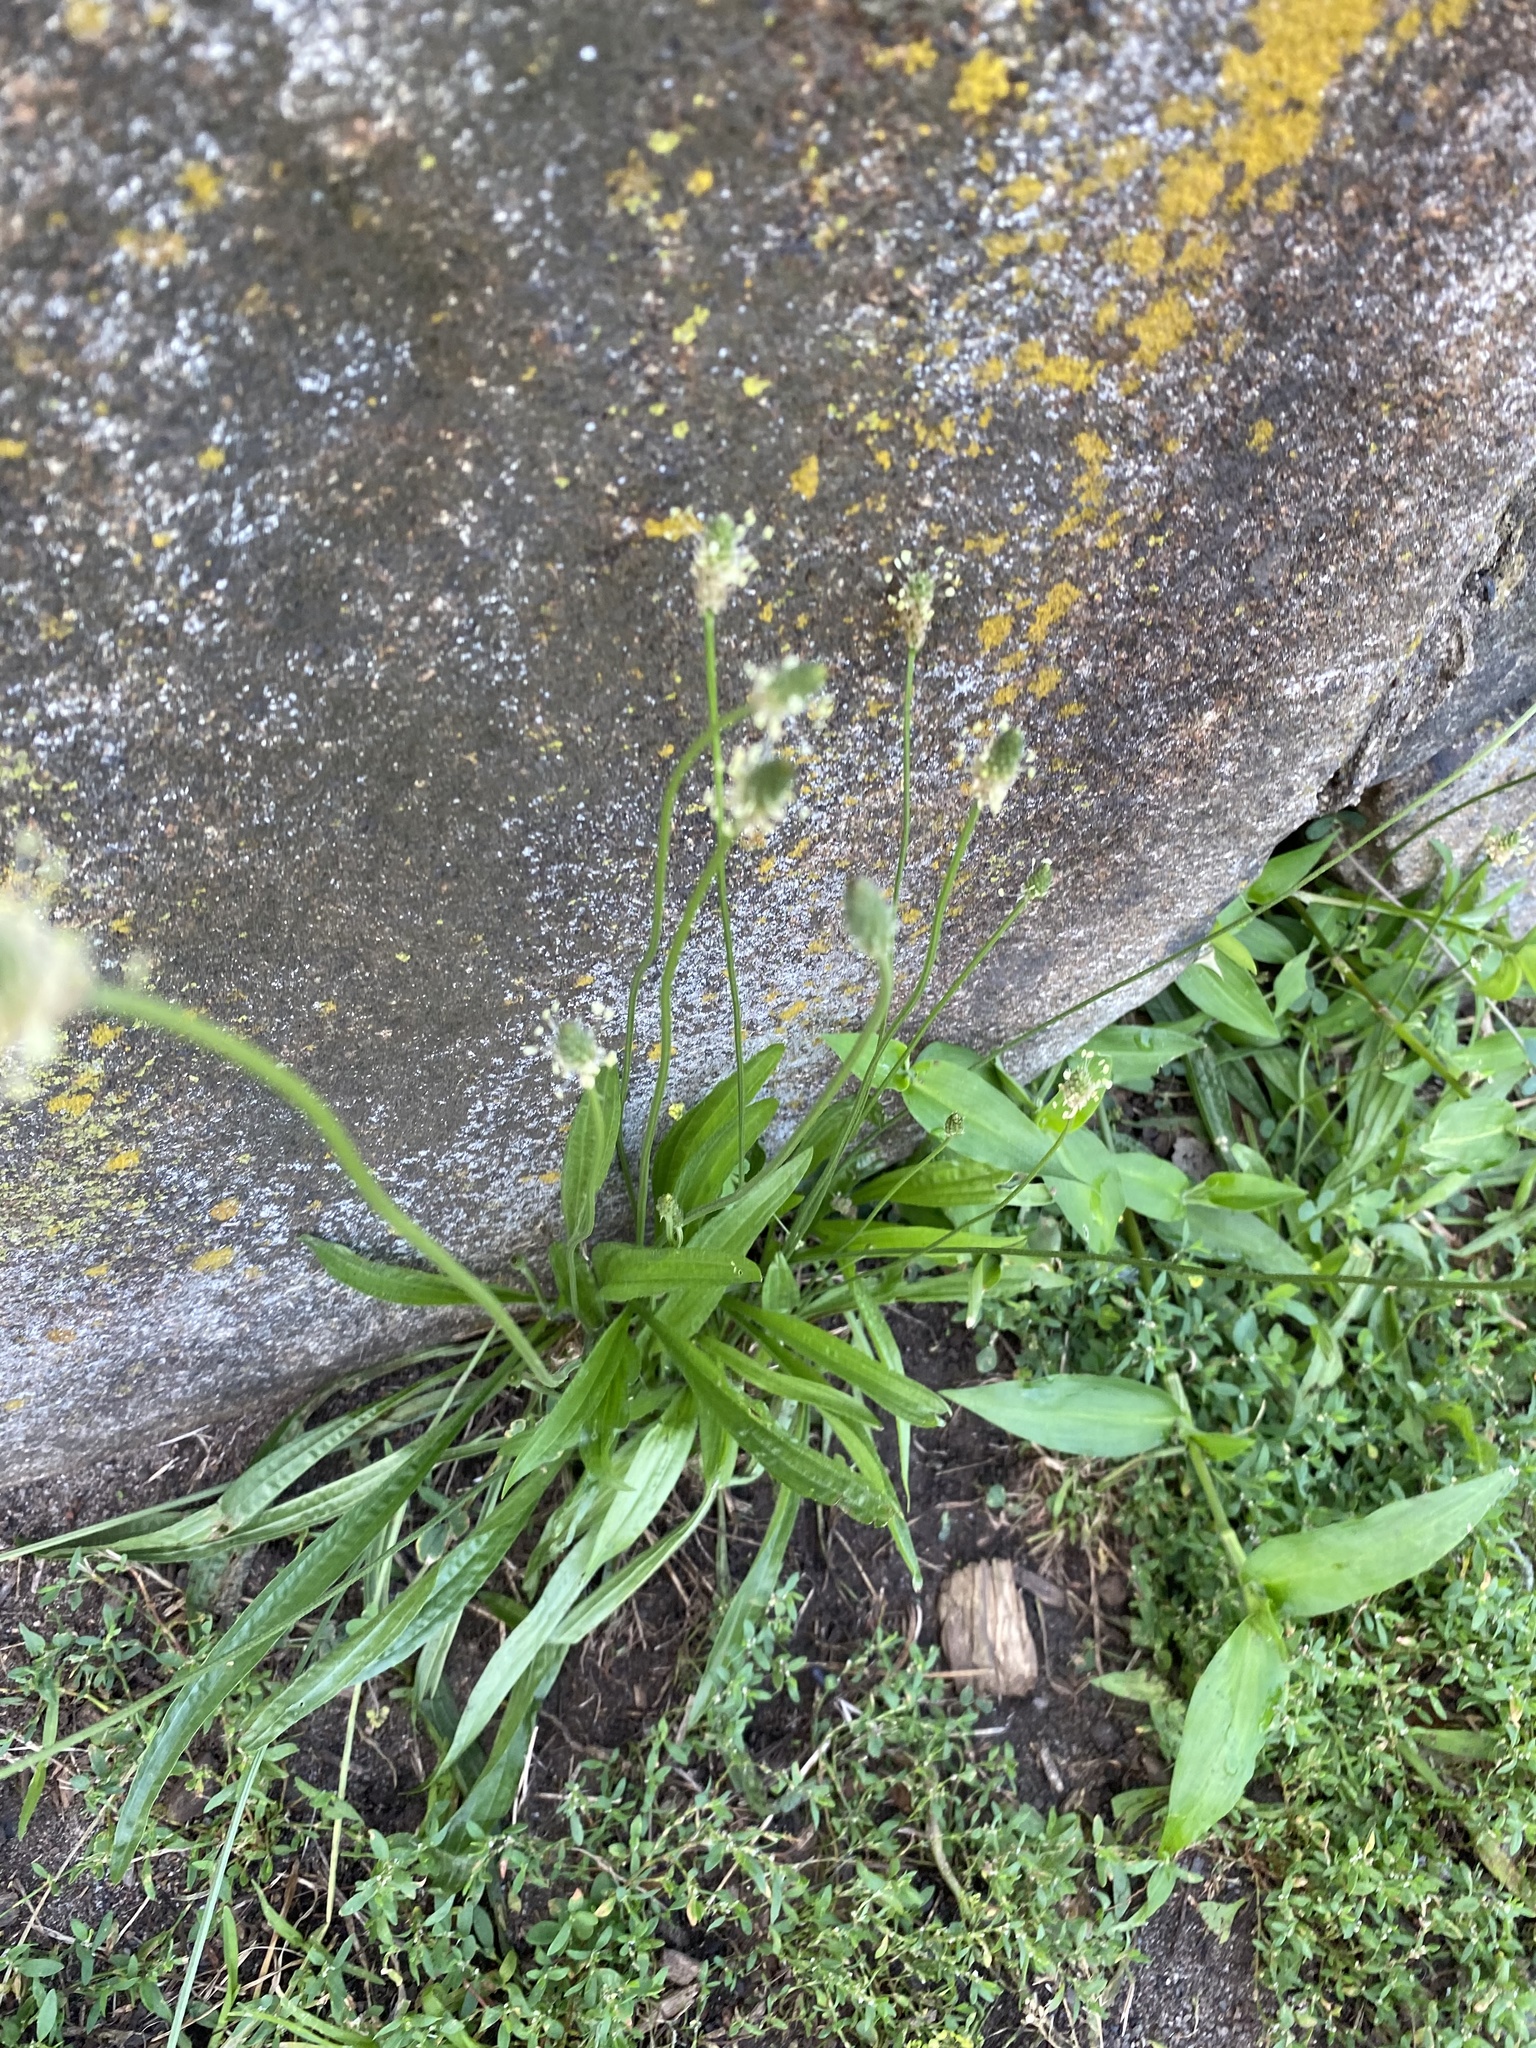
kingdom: Plantae
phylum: Tracheophyta
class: Magnoliopsida
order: Lamiales
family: Plantaginaceae
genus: Plantago
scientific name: Plantago lanceolata
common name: Ribwort plantain
